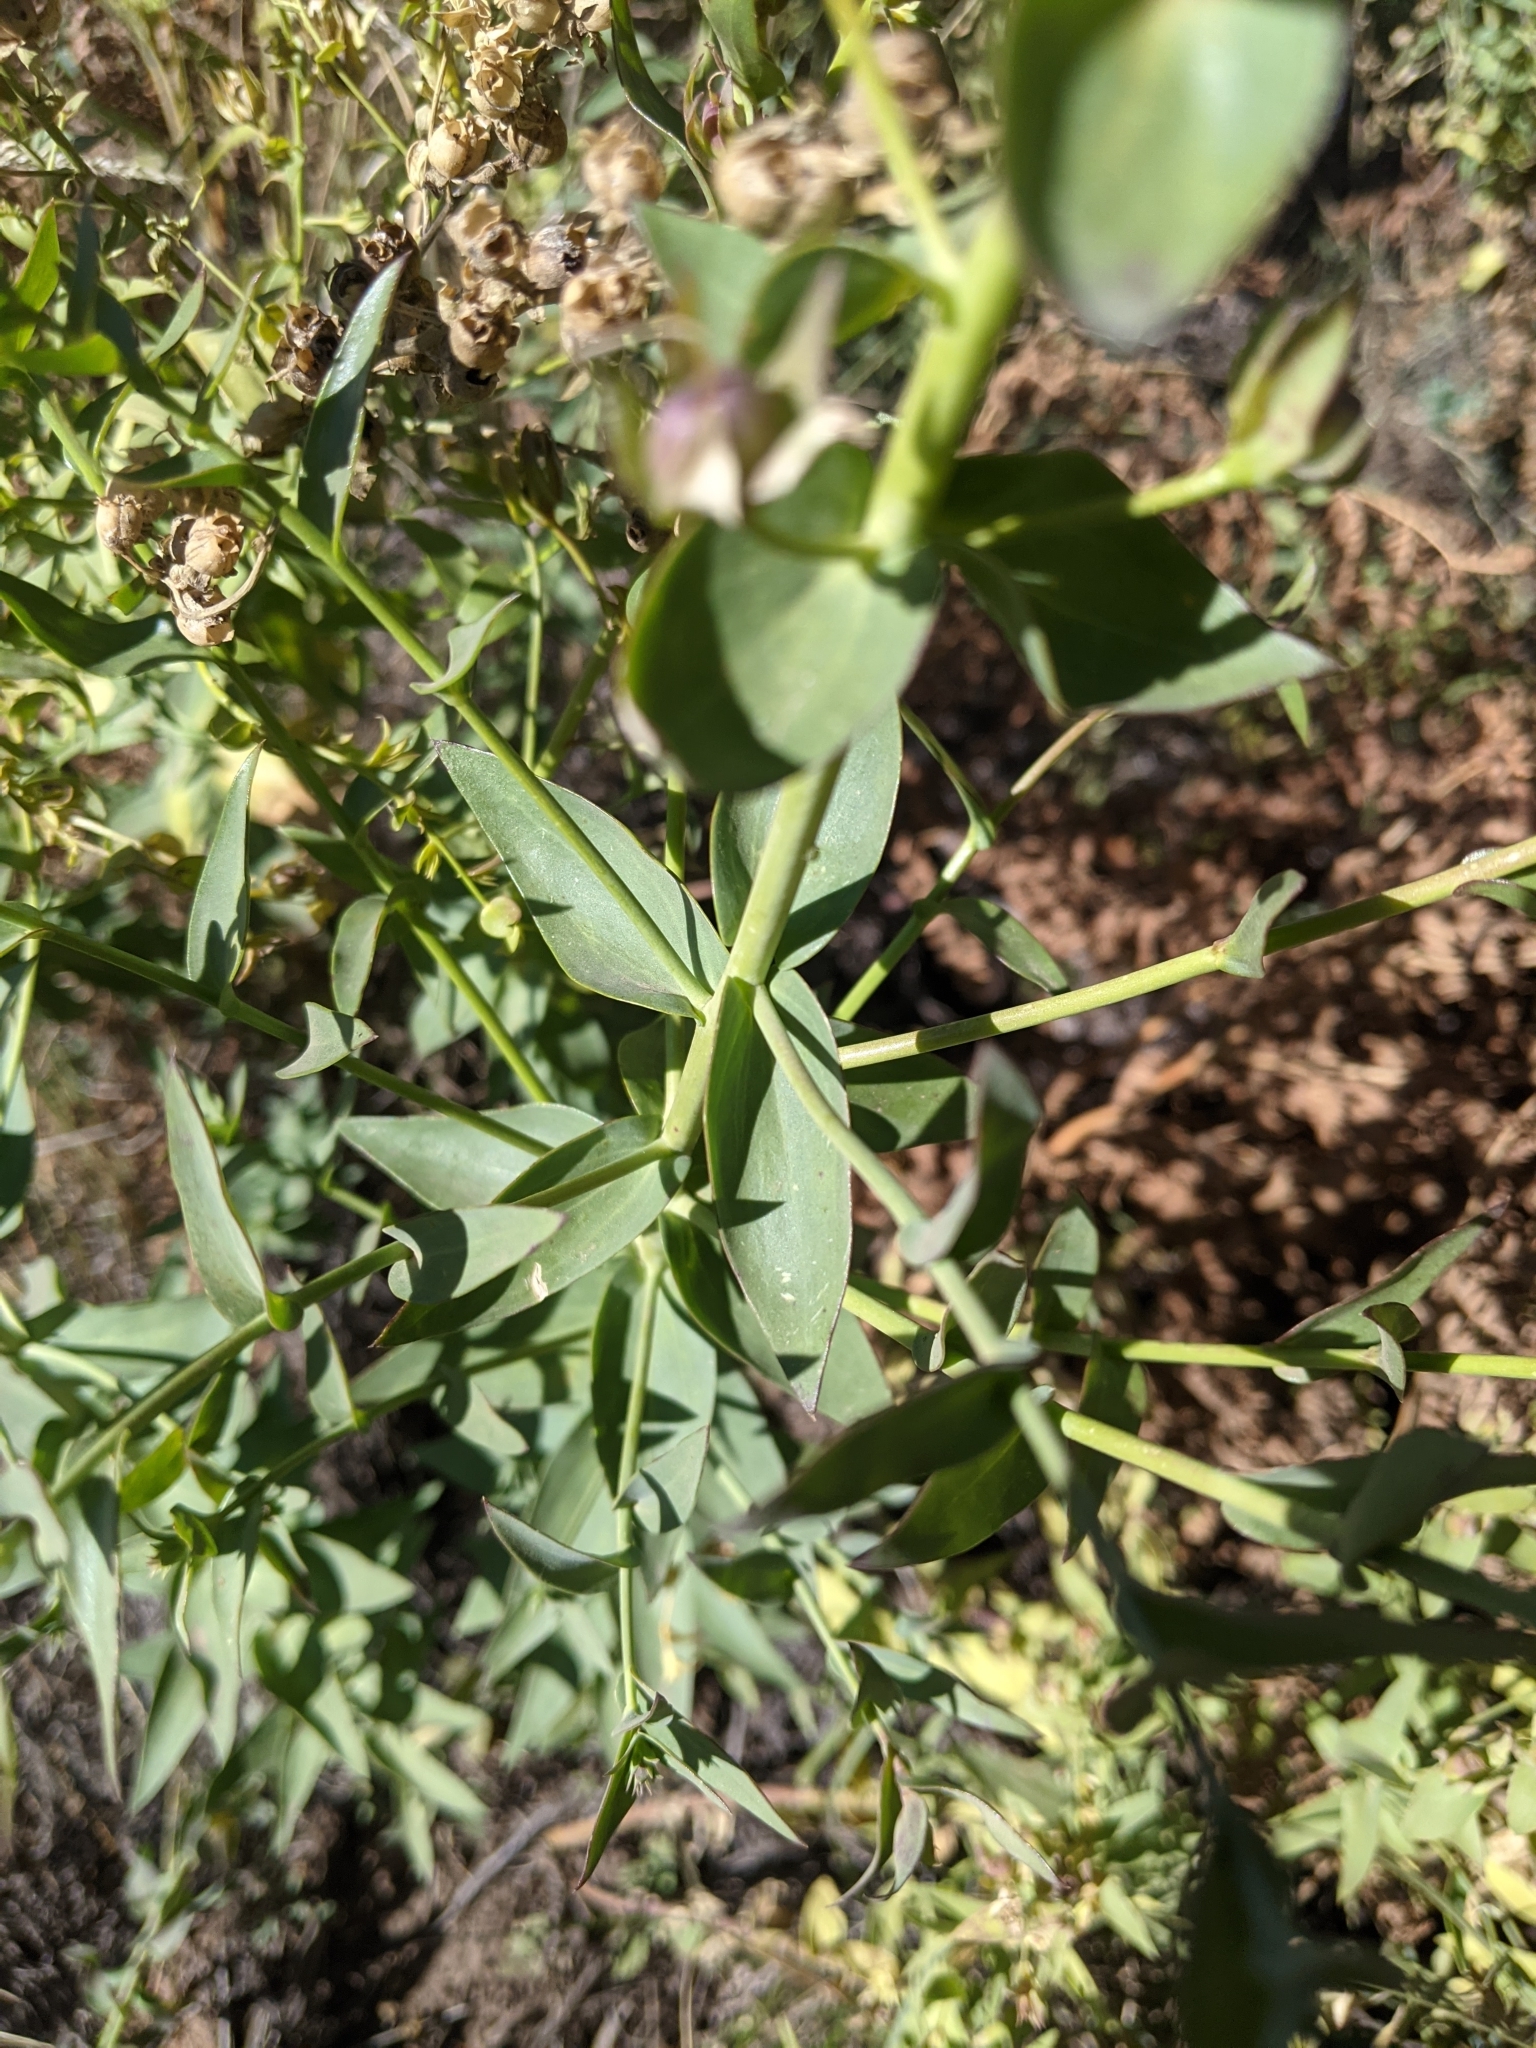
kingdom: Plantae
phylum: Tracheophyta
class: Magnoliopsida
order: Lamiales
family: Plantaginaceae
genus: Linaria
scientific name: Linaria dalmatica
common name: Dalmatian toadflax
